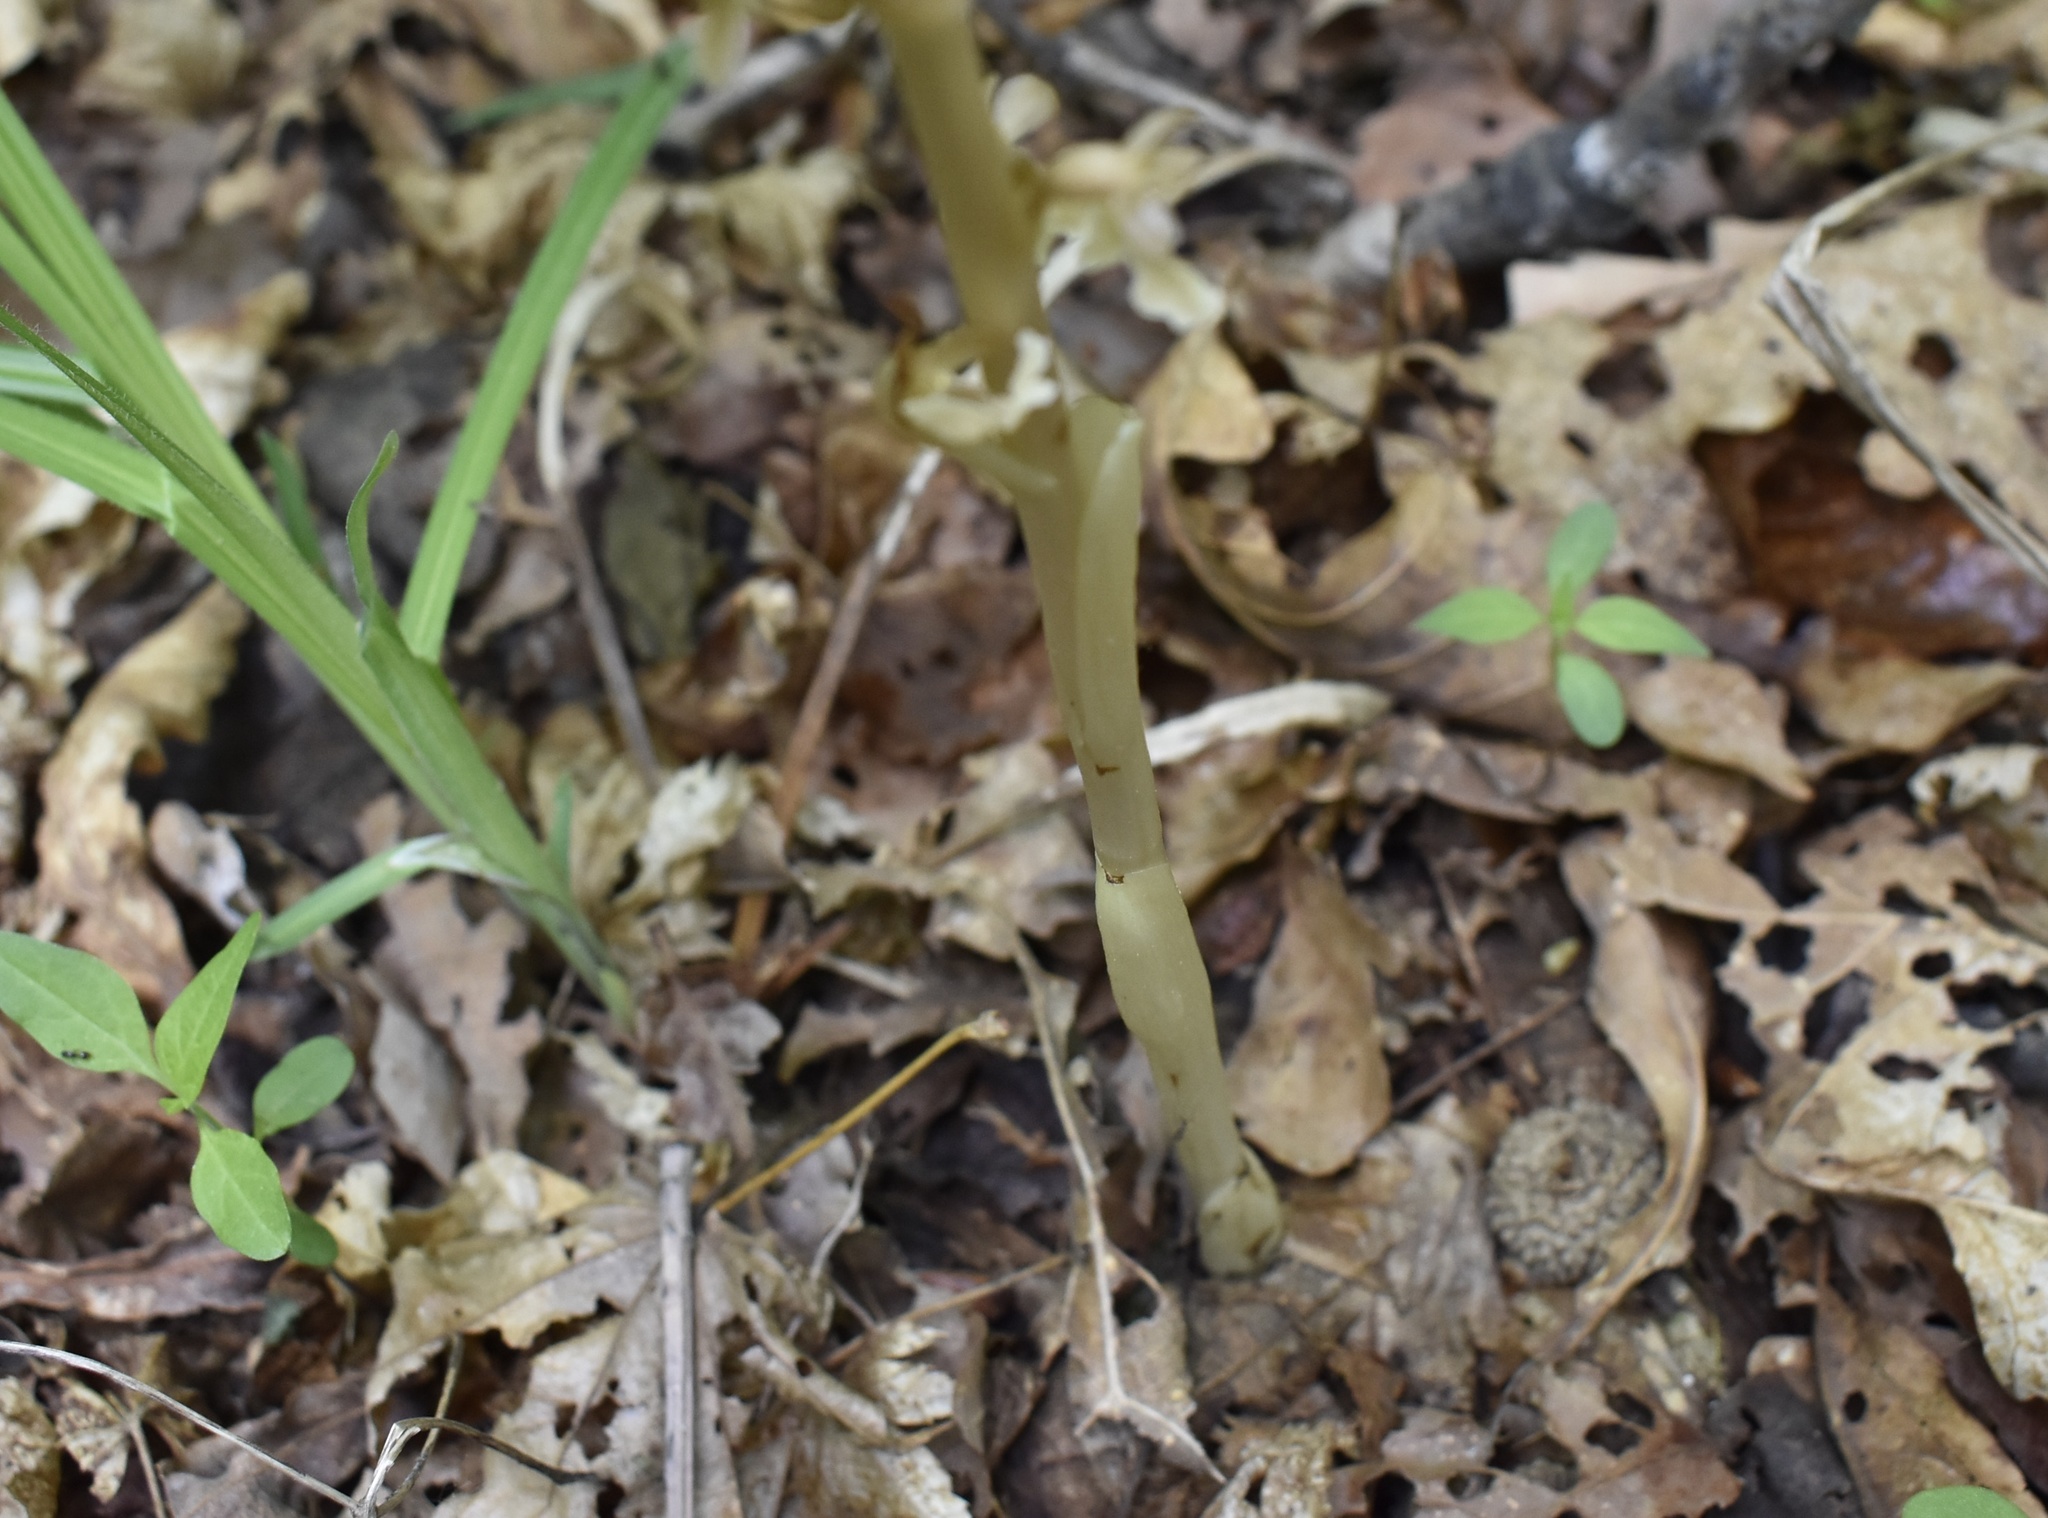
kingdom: Plantae
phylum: Tracheophyta
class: Liliopsida
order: Asparagales
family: Orchidaceae
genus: Neottia
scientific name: Neottia papilligera
